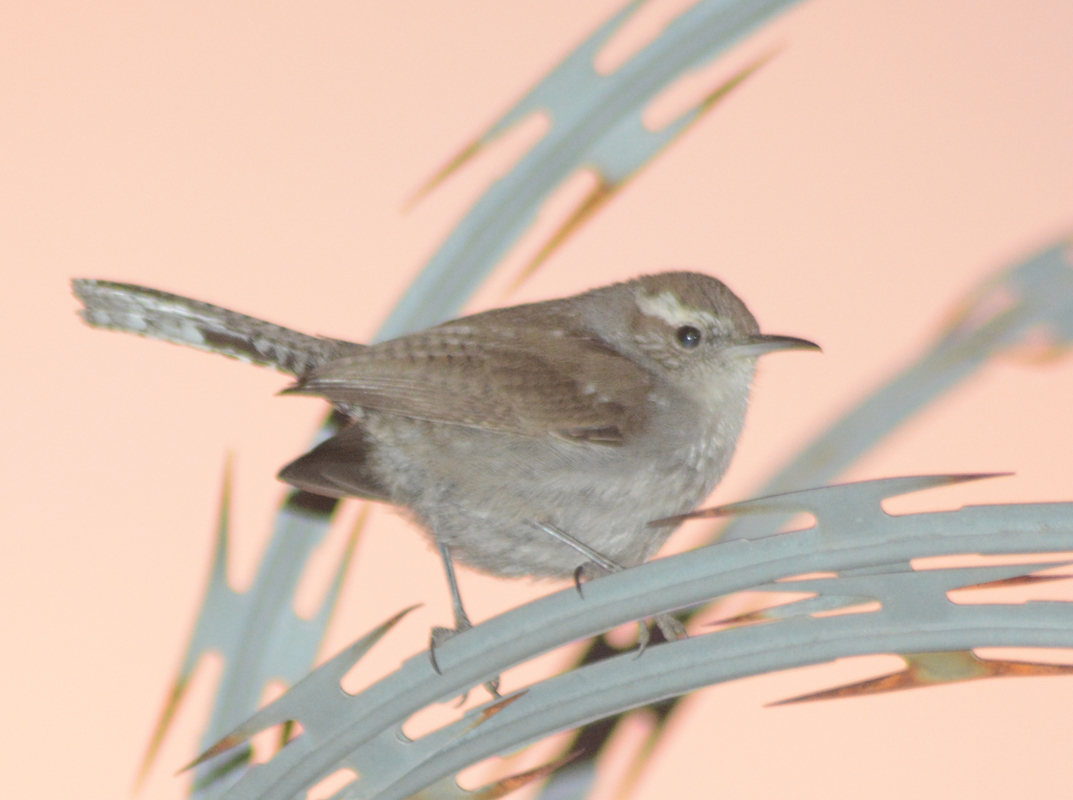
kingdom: Animalia
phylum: Chordata
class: Aves
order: Passeriformes
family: Troglodytidae
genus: Thryomanes
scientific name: Thryomanes bewickii
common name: Bewick's wren
